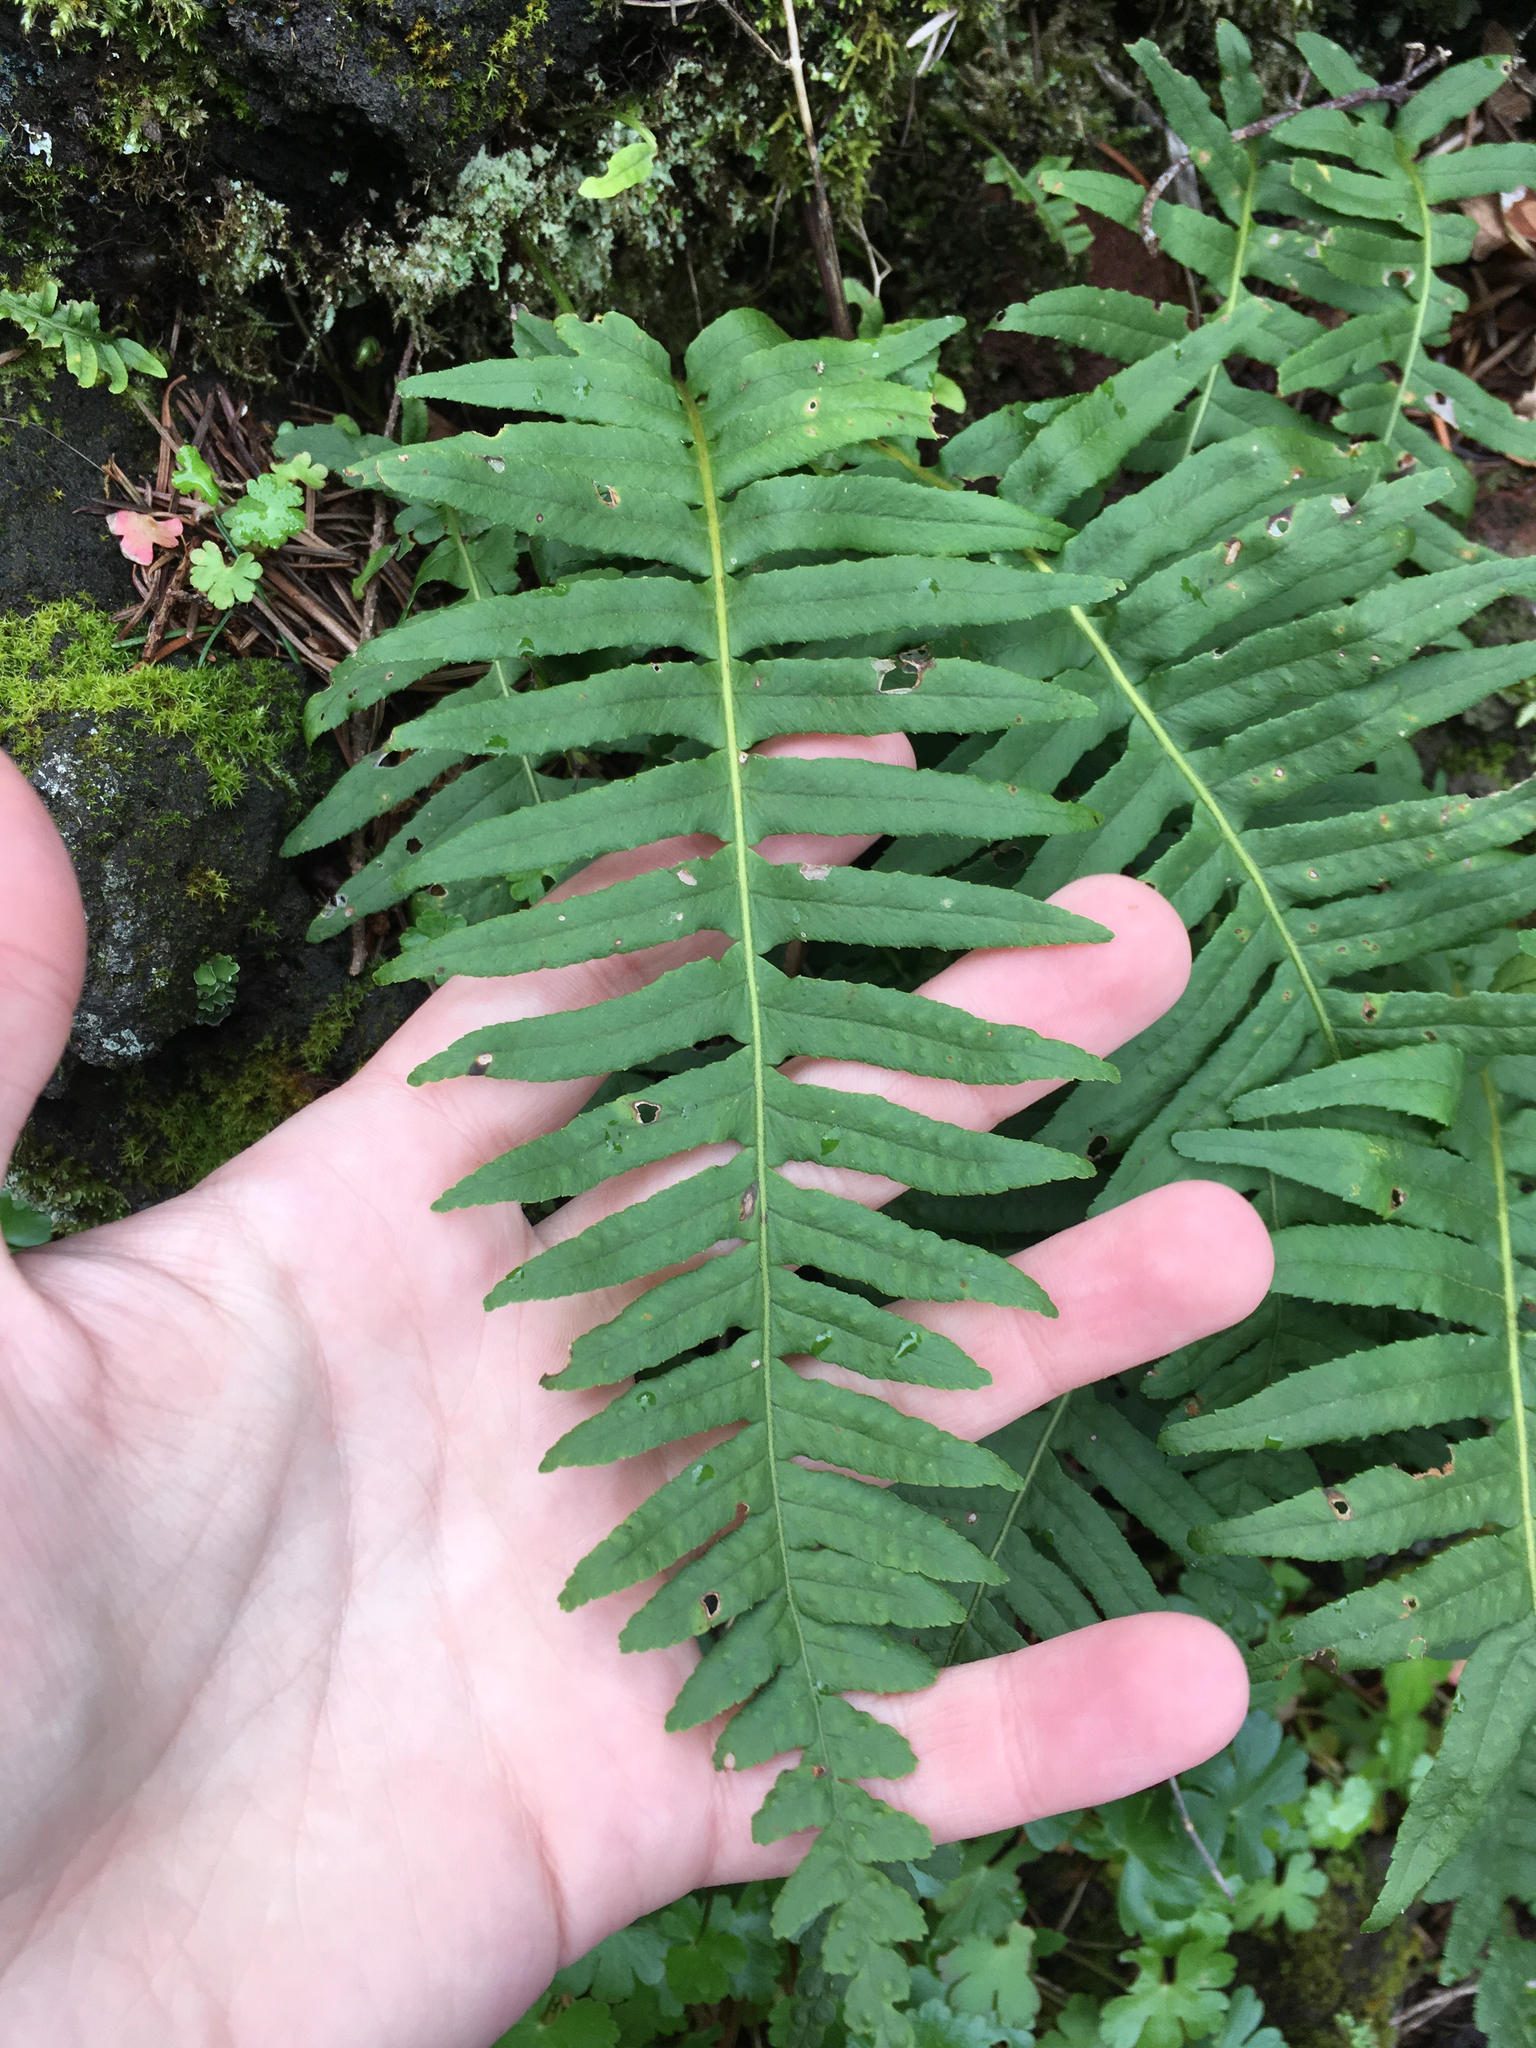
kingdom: Plantae
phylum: Tracheophyta
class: Polypodiopsida
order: Polypodiales
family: Polypodiaceae
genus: Polypodium
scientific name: Polypodium glycyrrhiza
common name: Licorice fern
